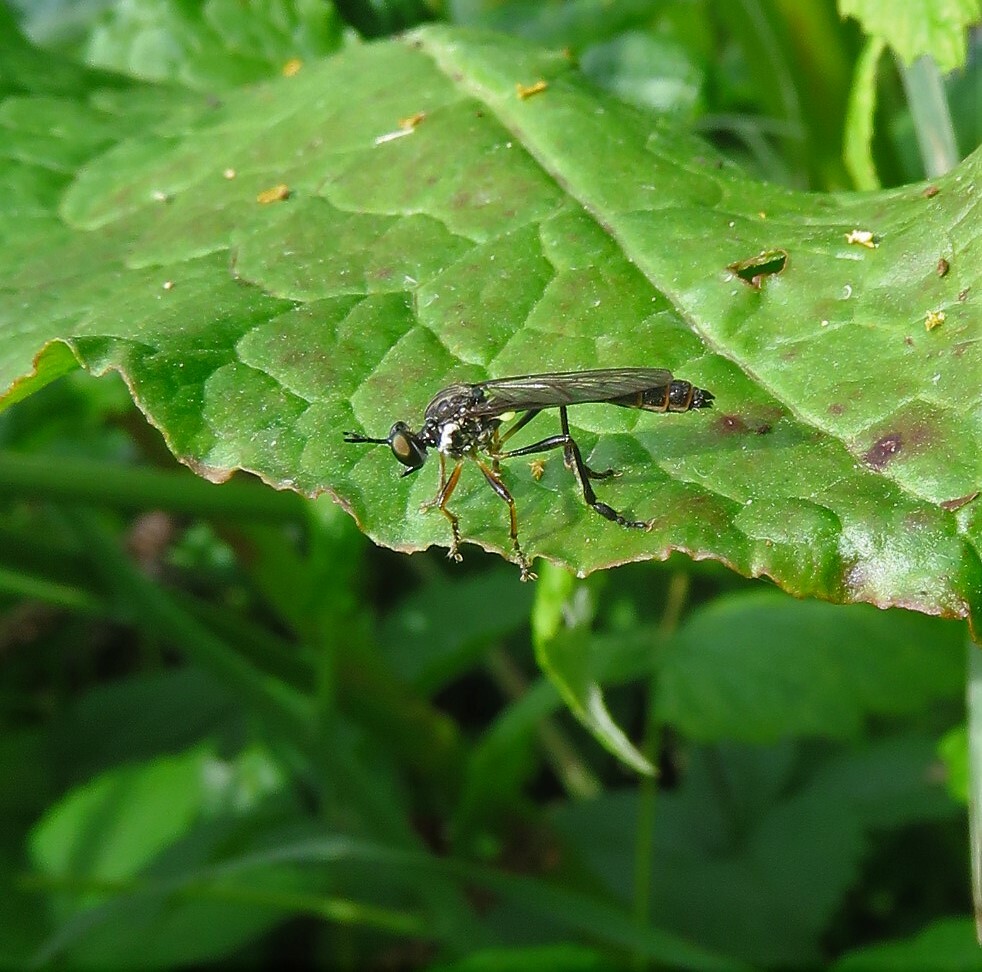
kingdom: Animalia
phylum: Arthropoda
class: Insecta
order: Diptera
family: Asilidae
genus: Dioctria
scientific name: Dioctria hyalipennis
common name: Stripe-legged robberfly
